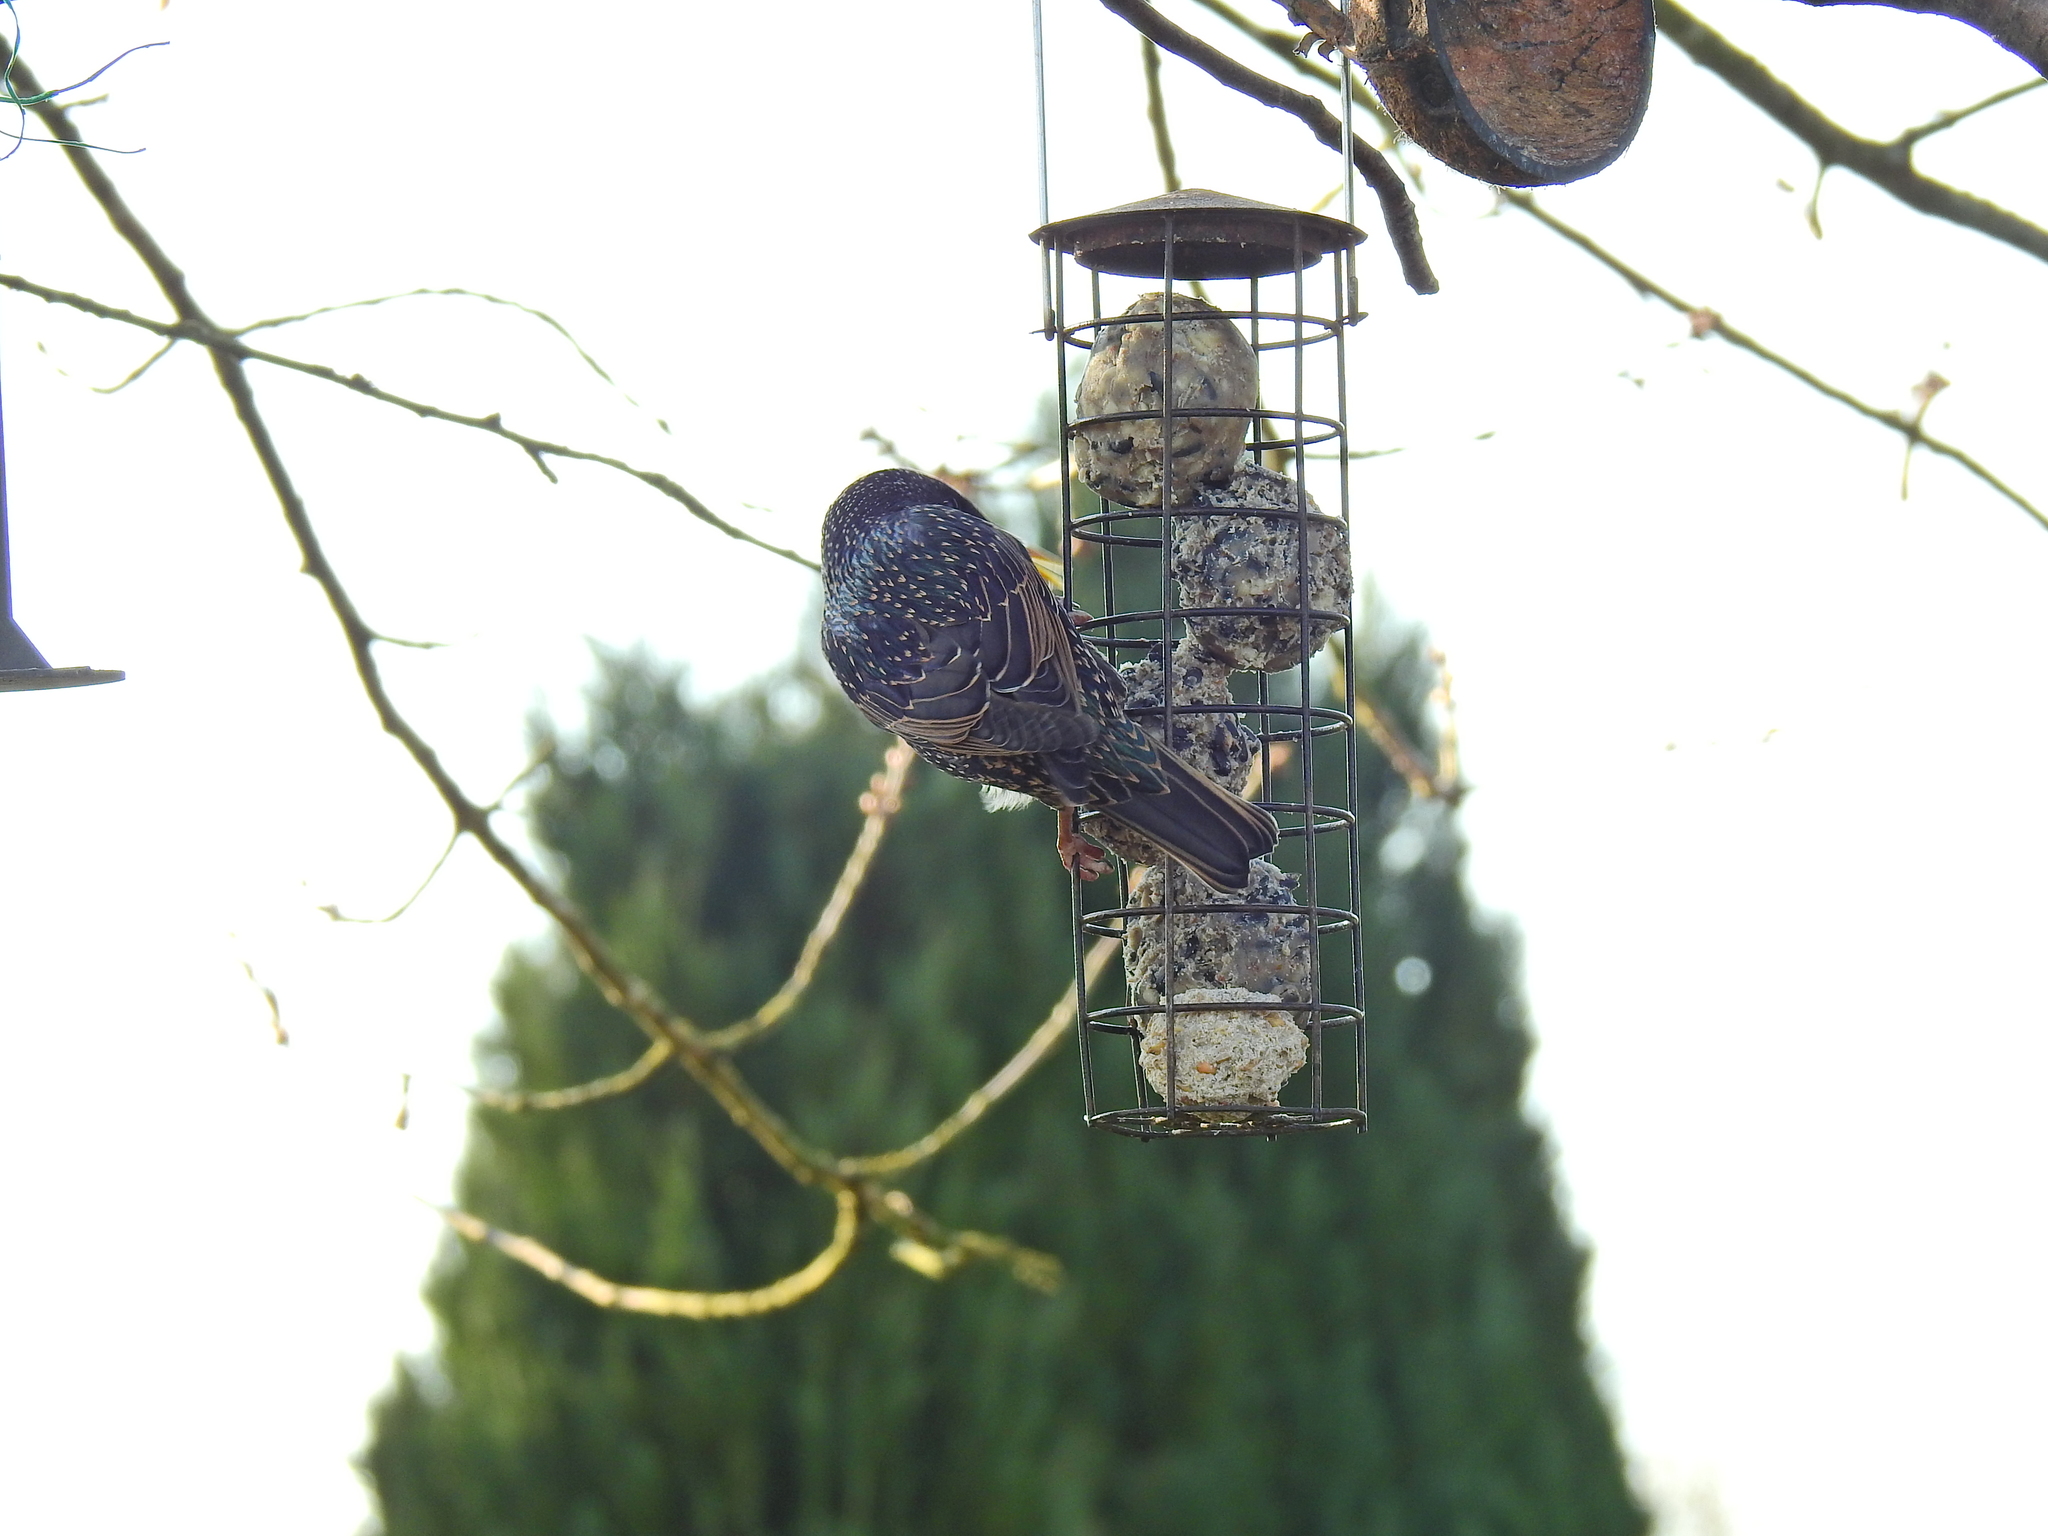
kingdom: Animalia
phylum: Chordata
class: Aves
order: Passeriformes
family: Sturnidae
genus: Sturnus
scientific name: Sturnus vulgaris
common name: Common starling
